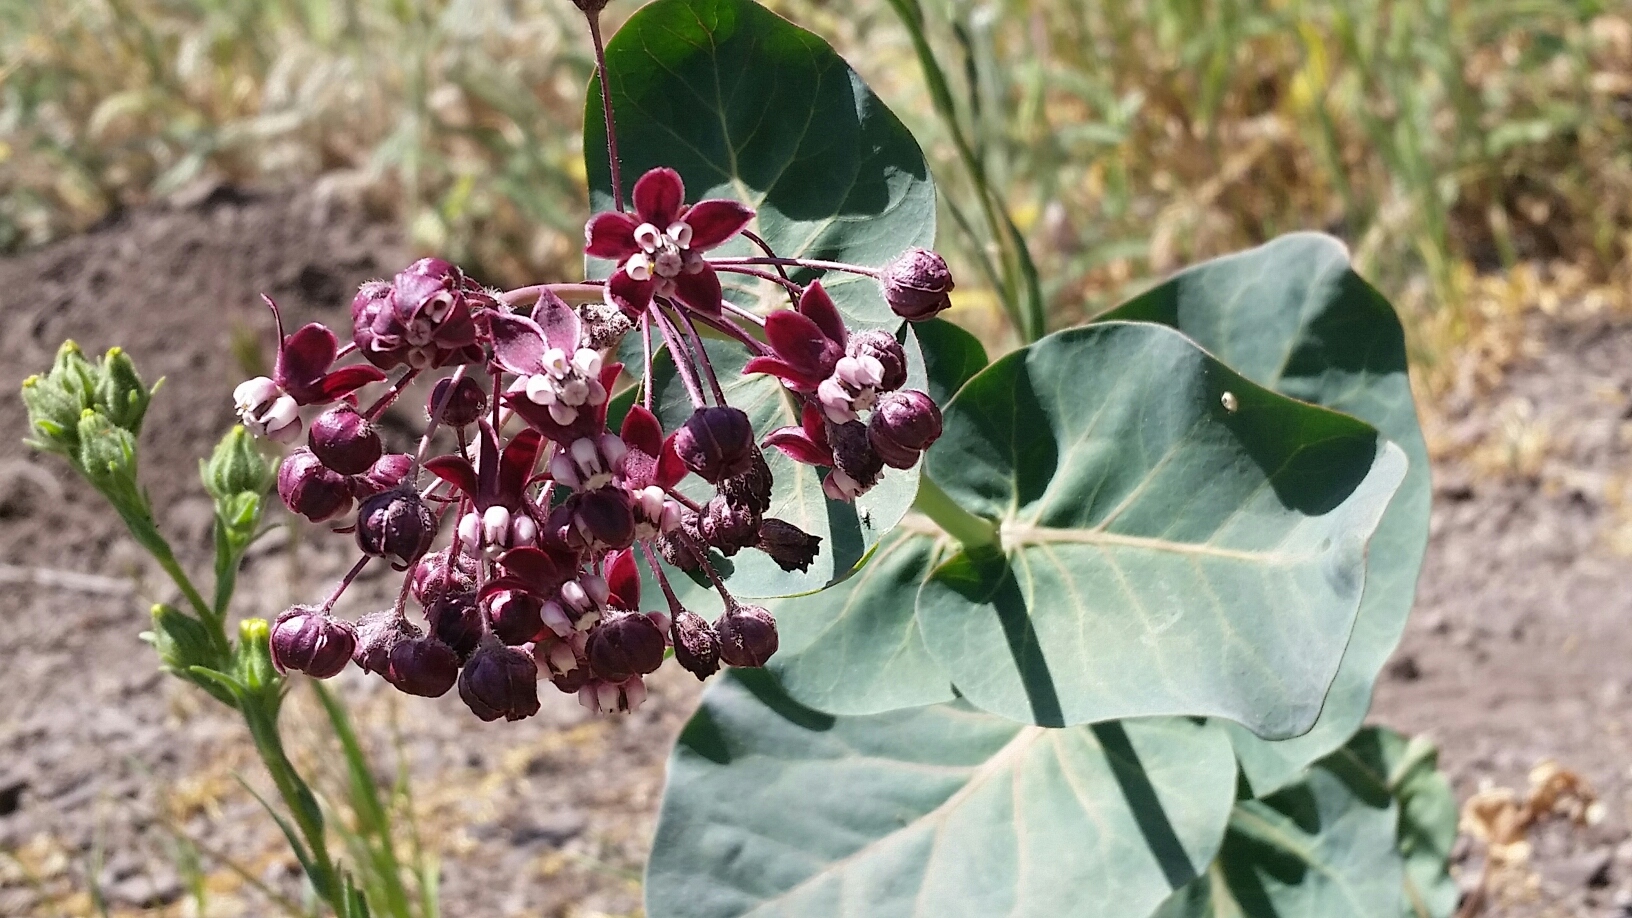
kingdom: Plantae
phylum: Tracheophyta
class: Magnoliopsida
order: Gentianales
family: Apocynaceae
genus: Asclepias
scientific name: Asclepias cordifolia
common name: Purple milkweed
